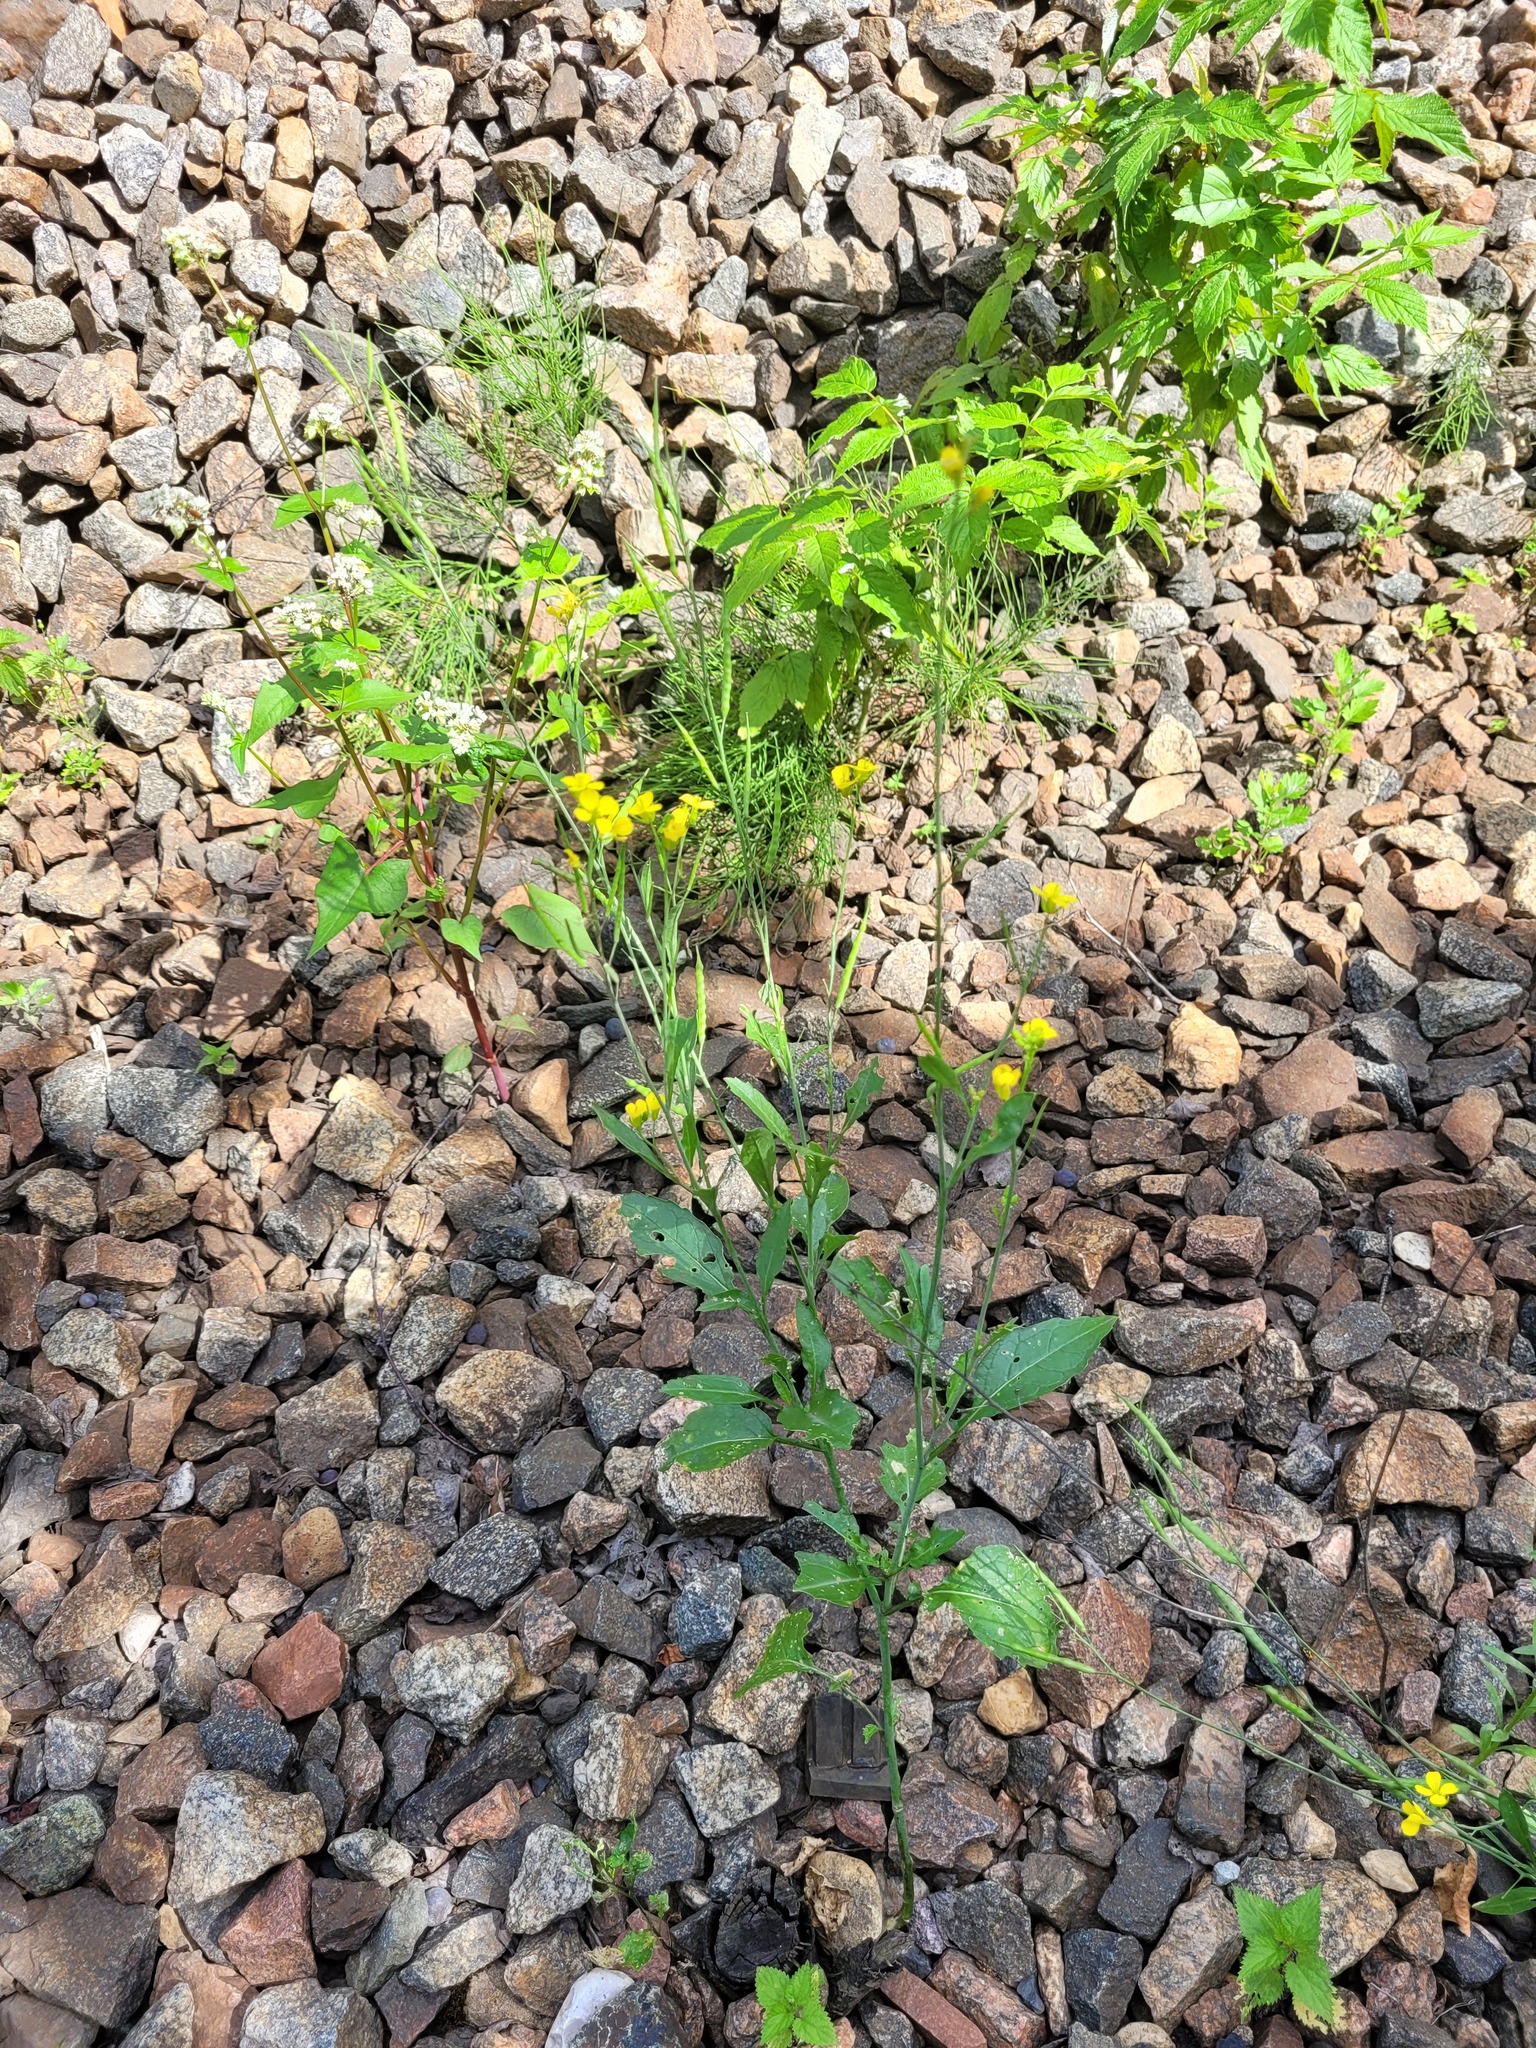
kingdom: Plantae
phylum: Tracheophyta
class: Magnoliopsida
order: Brassicales
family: Brassicaceae
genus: Brassica
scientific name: Brassica juncea
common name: Brown mustard
